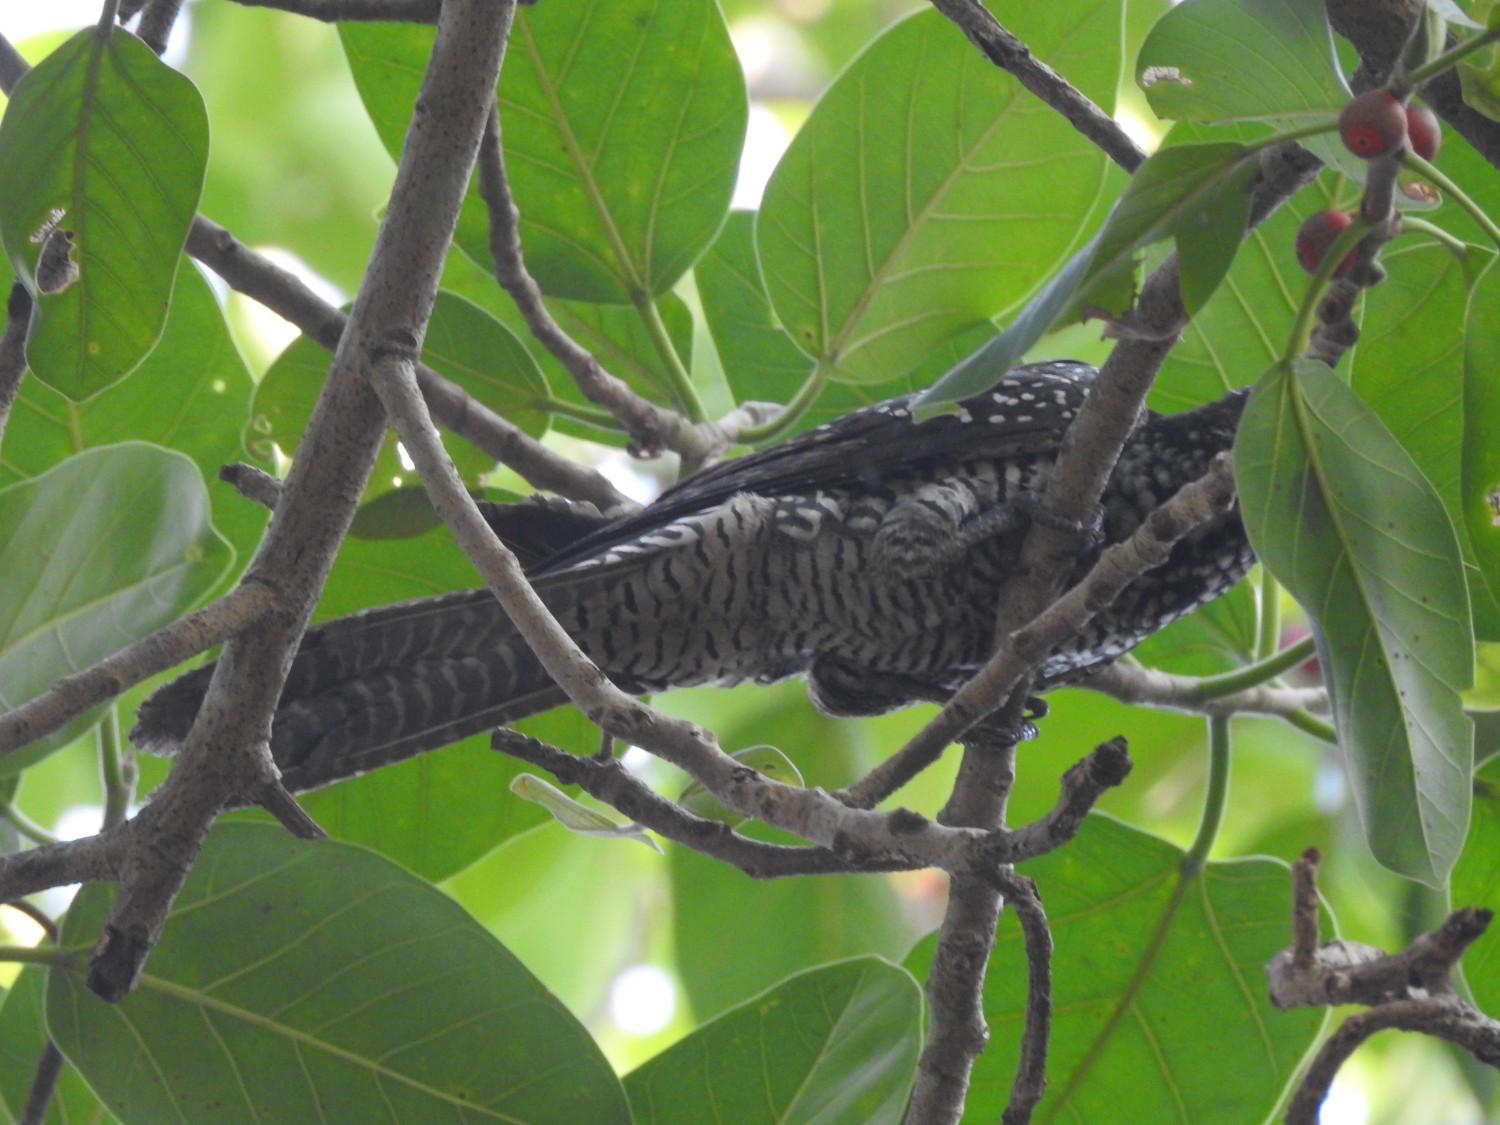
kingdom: Animalia
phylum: Chordata
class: Aves
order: Cuculiformes
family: Cuculidae
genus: Eudynamys
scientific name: Eudynamys scolopaceus
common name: Asian koel
